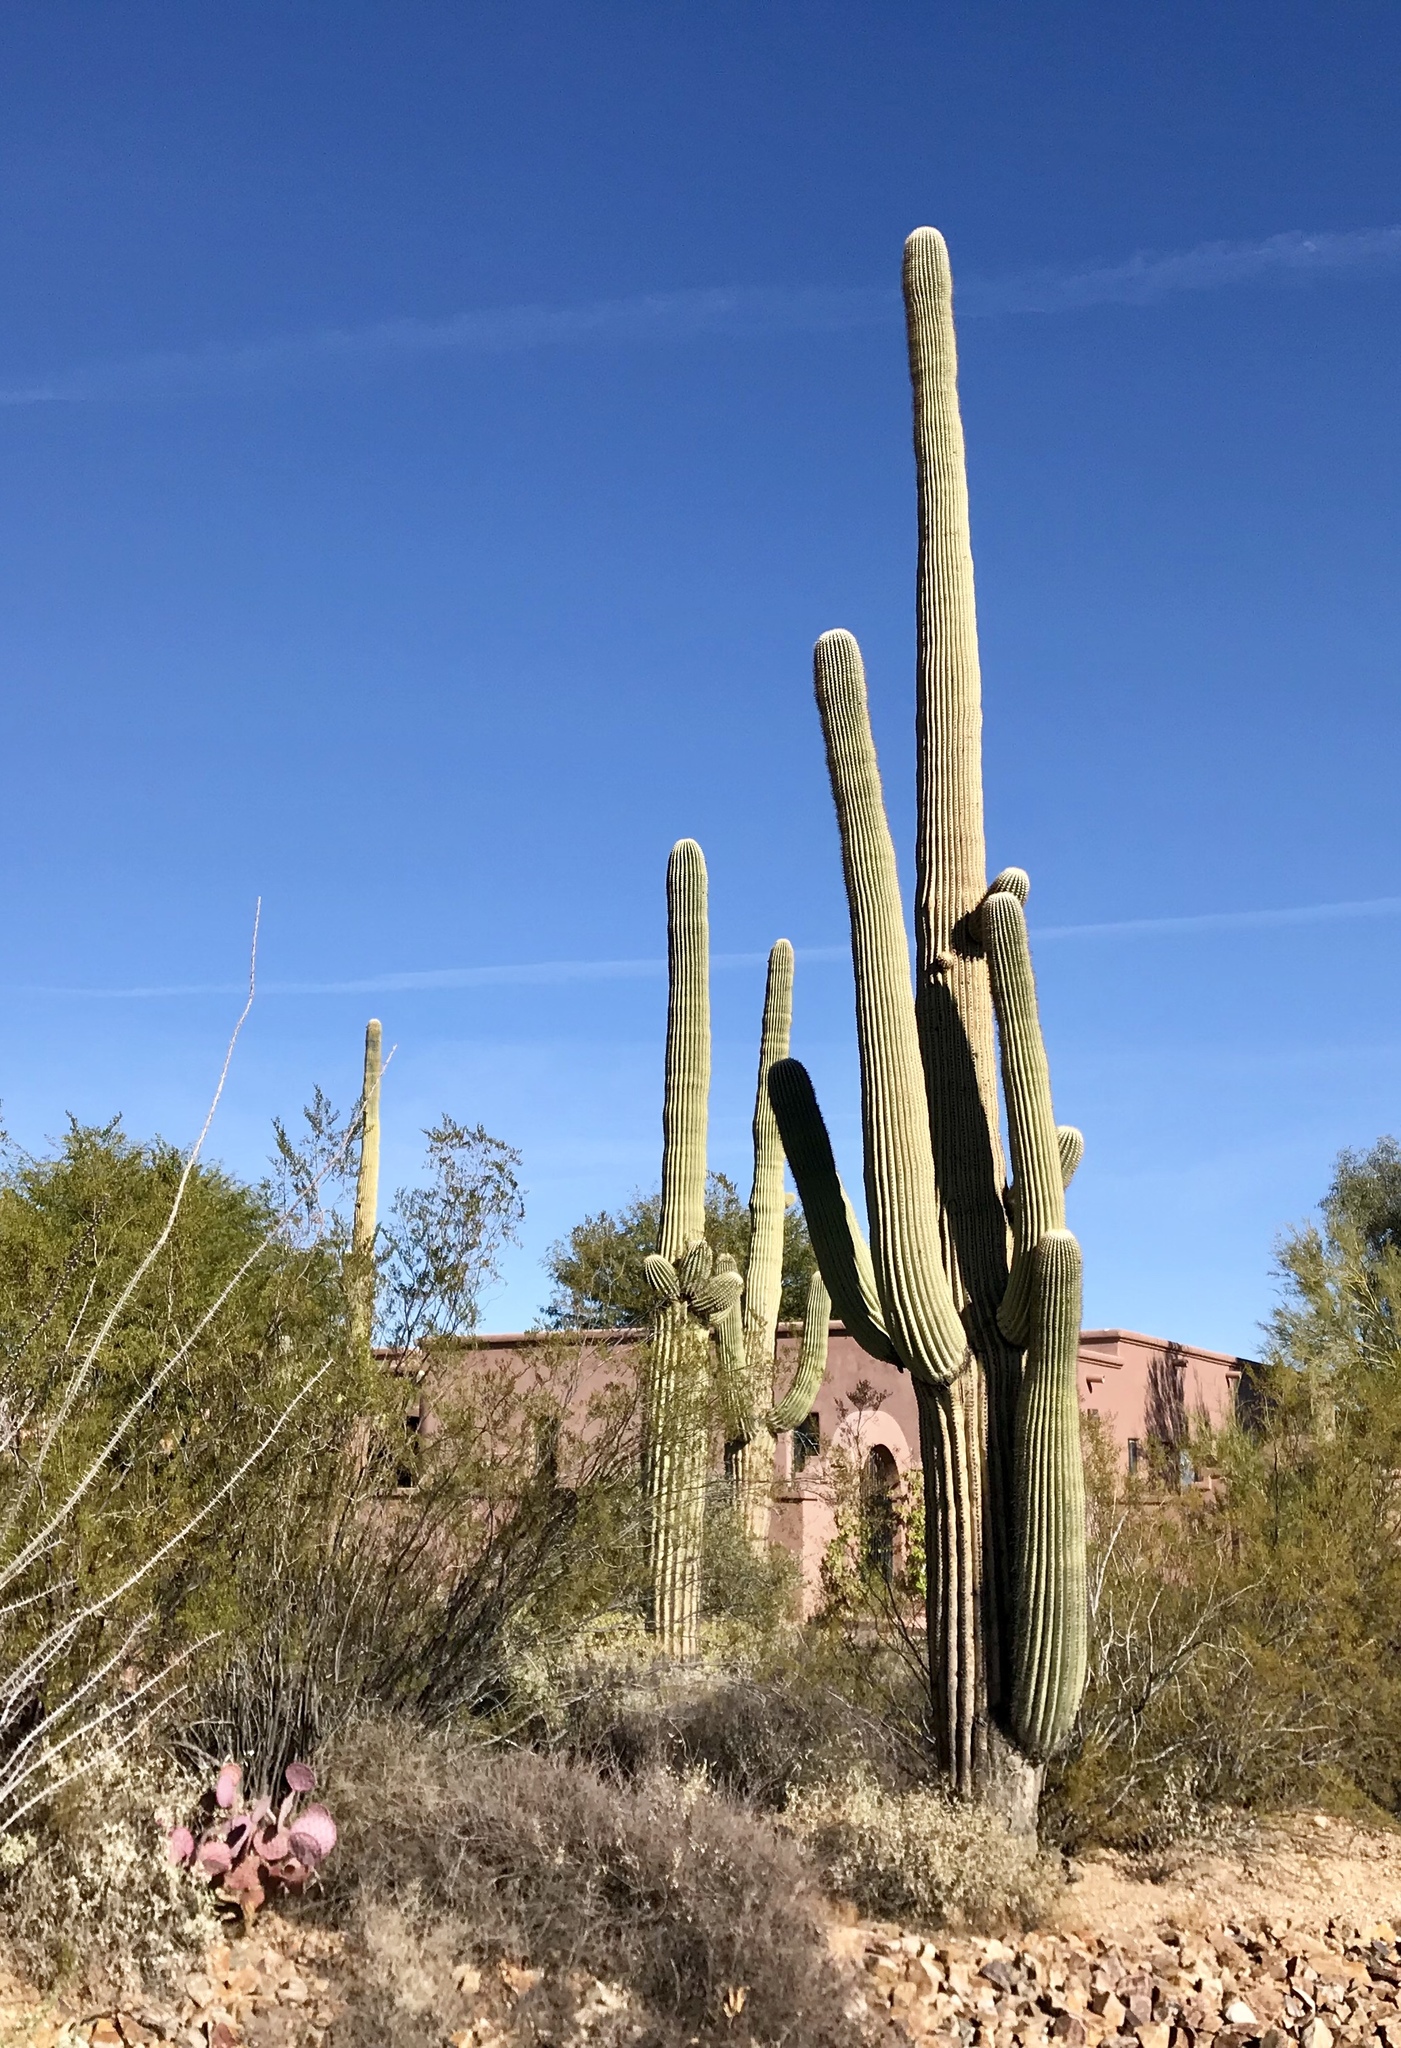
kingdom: Plantae
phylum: Tracheophyta
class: Magnoliopsida
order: Caryophyllales
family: Cactaceae
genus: Carnegiea
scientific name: Carnegiea gigantea
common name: Saguaro
